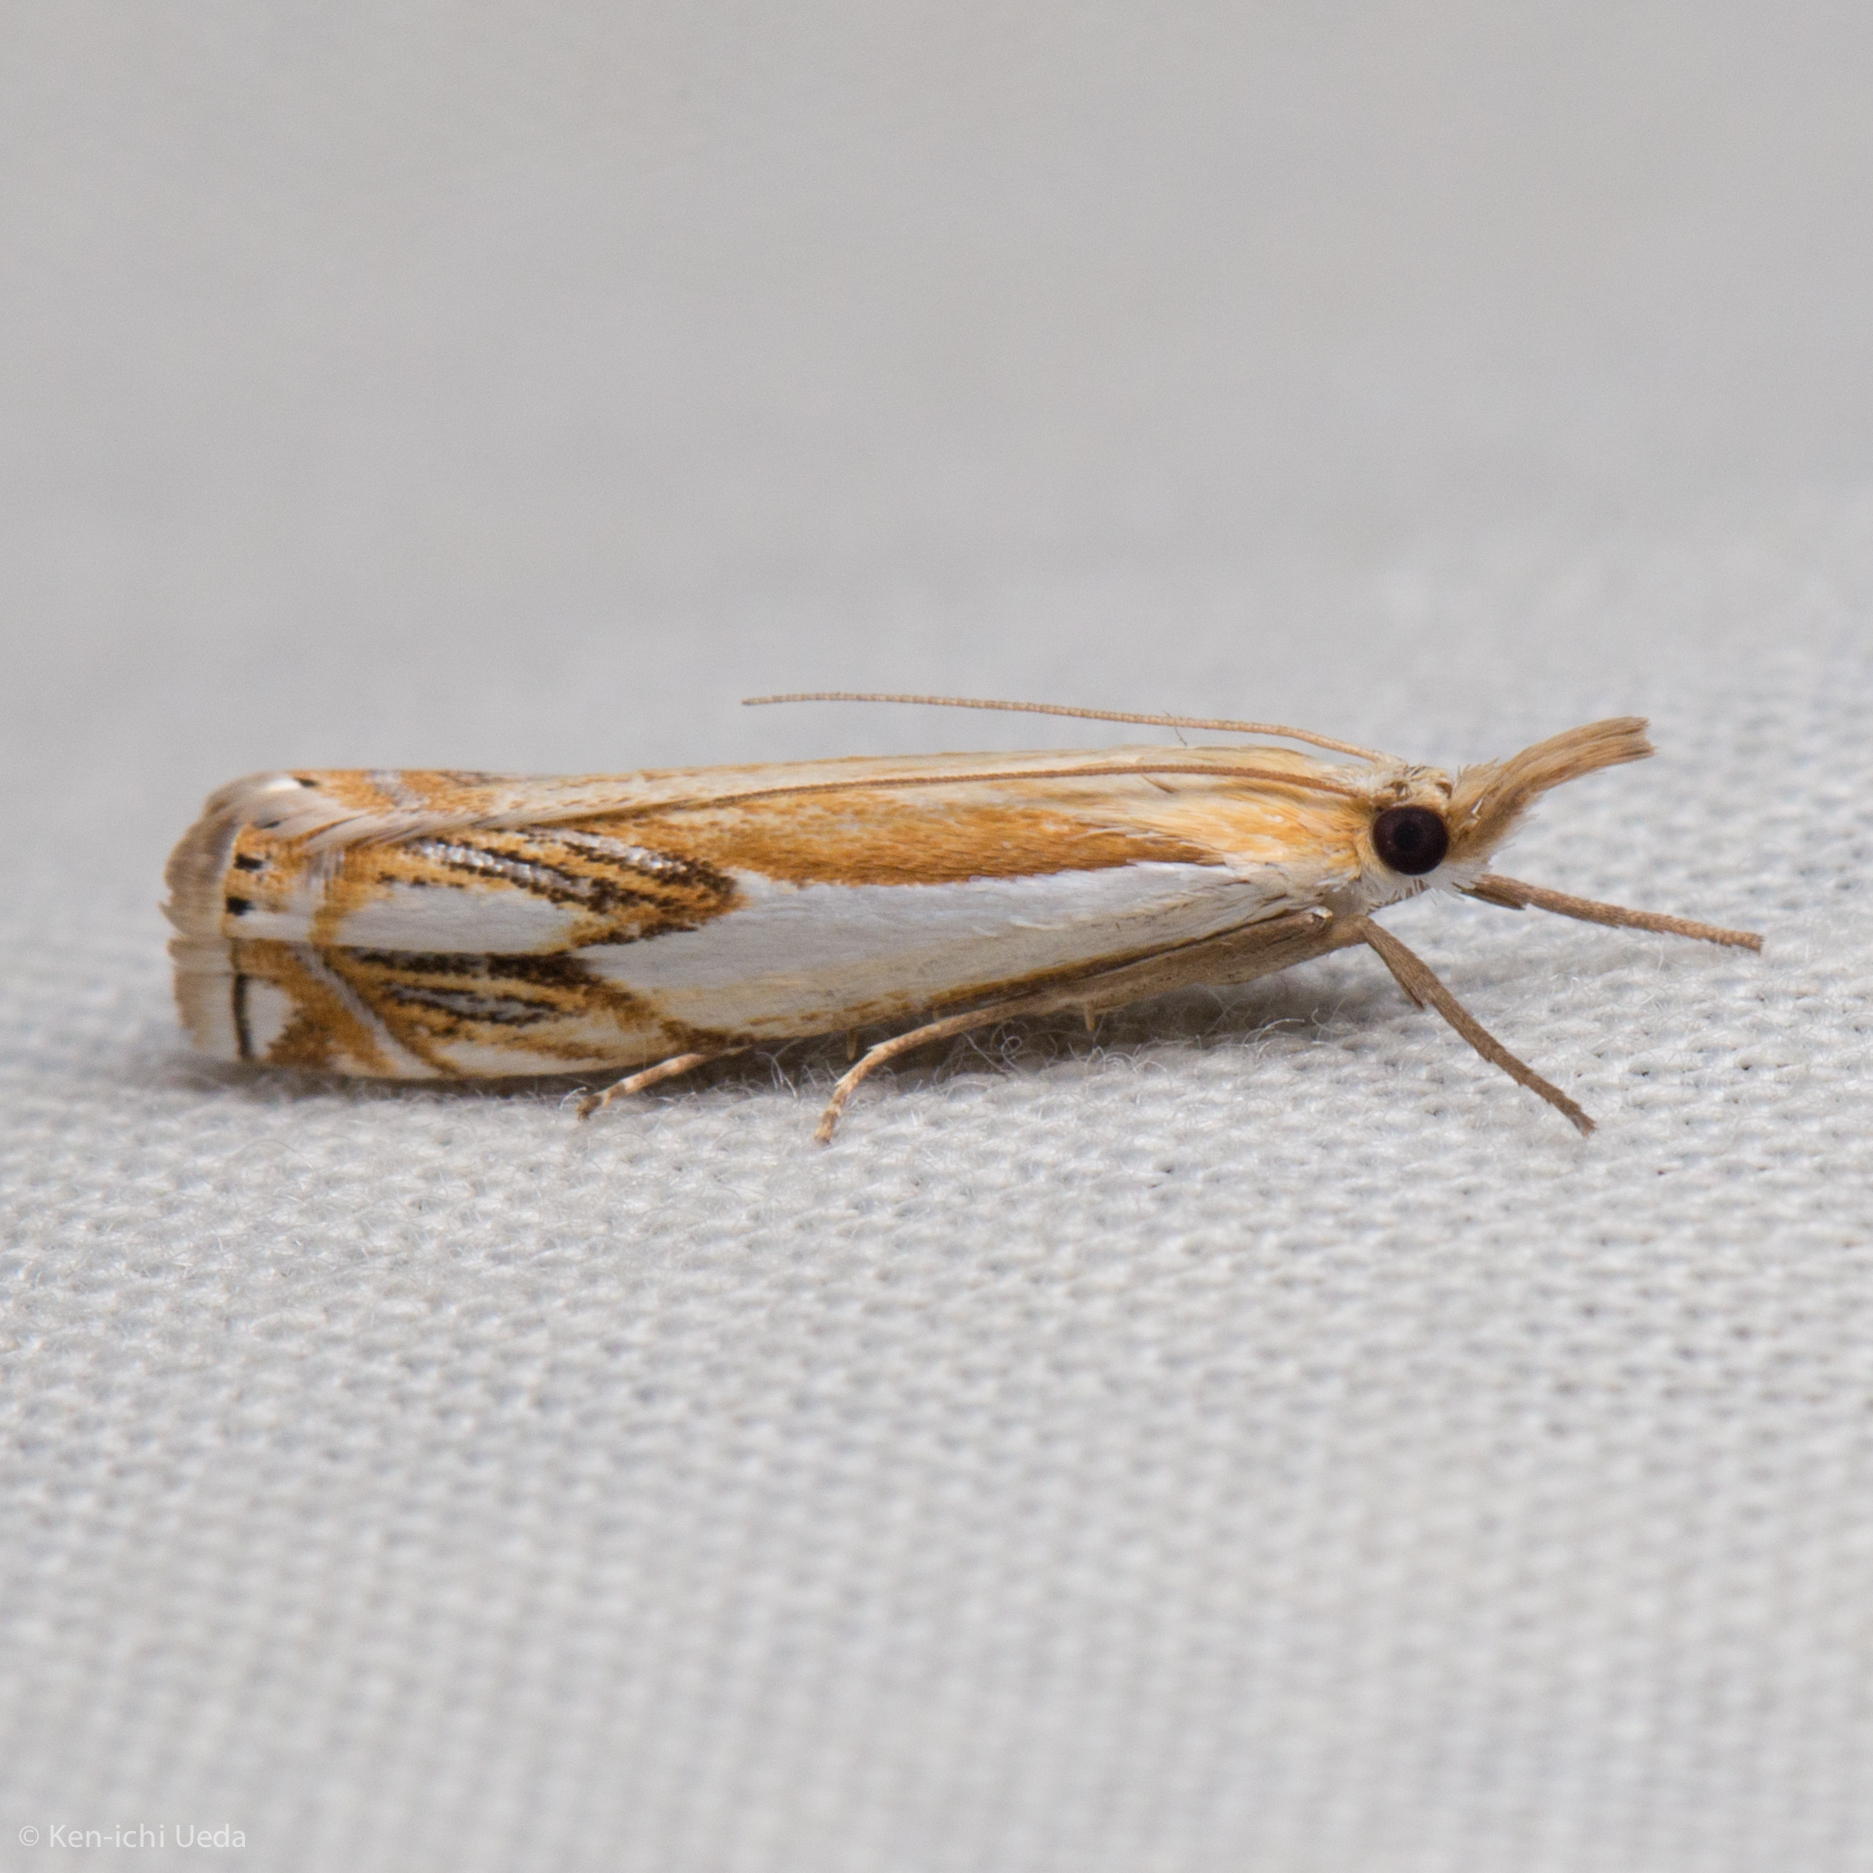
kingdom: Animalia
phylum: Arthropoda
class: Insecta
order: Lepidoptera
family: Crambidae
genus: Crambus
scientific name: Crambus agitatellus
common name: Double-banded grass-veneer
